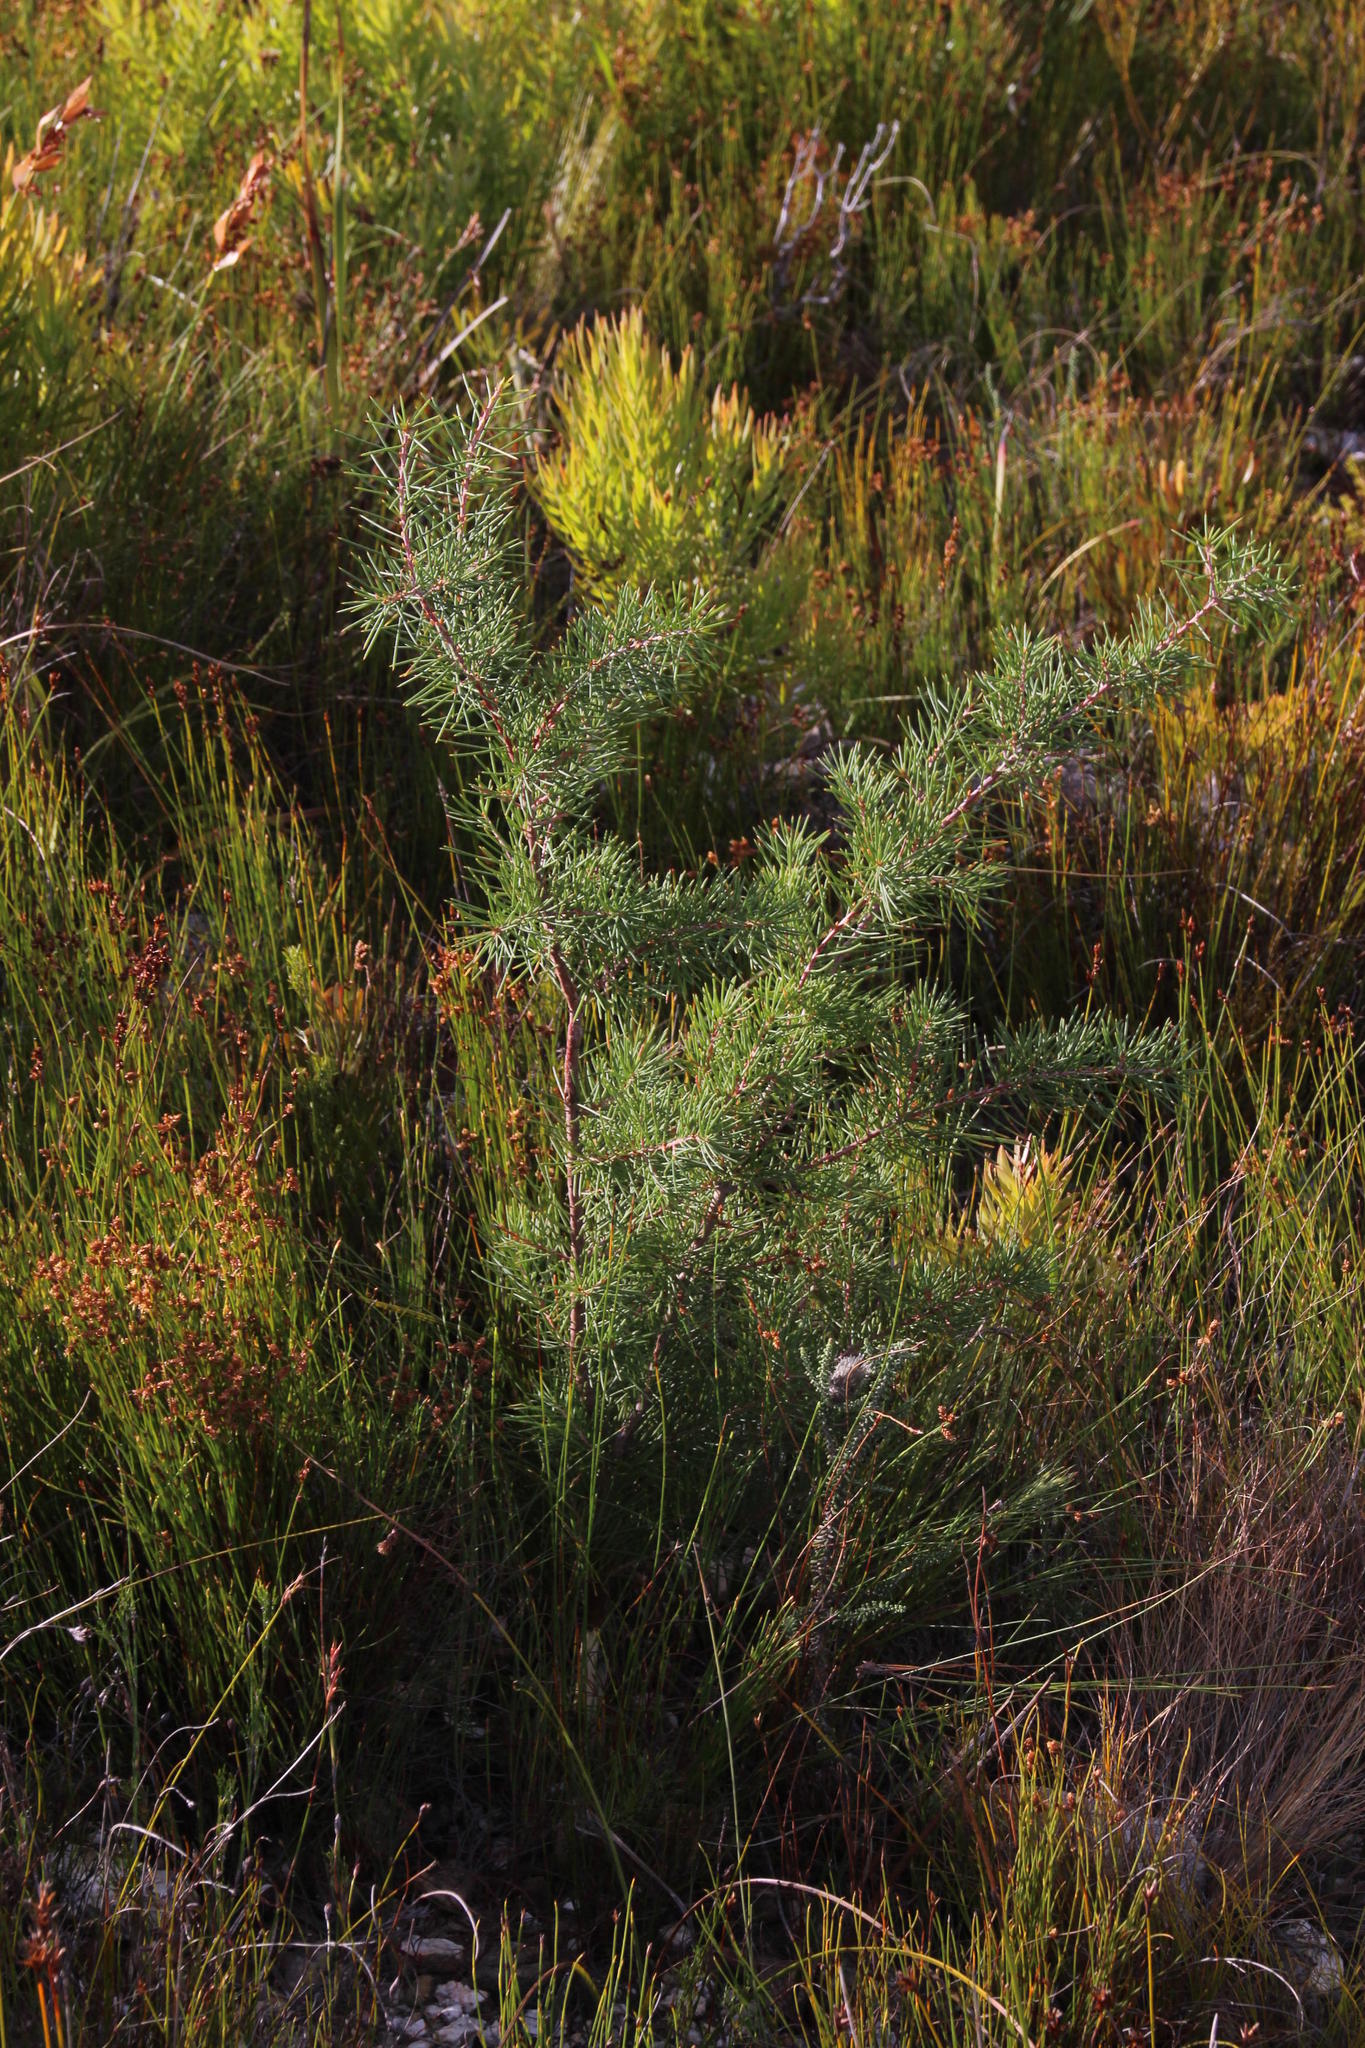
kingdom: Plantae
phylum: Tracheophyta
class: Magnoliopsida
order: Proteales
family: Proteaceae
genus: Hakea
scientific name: Hakea sericea
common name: Needle bush
